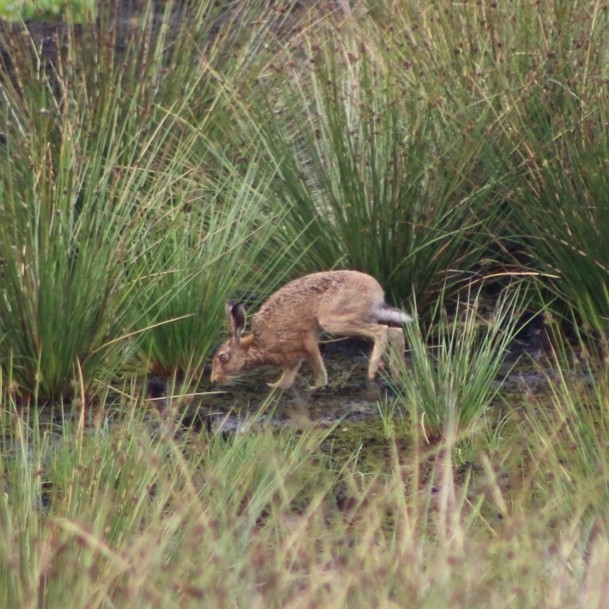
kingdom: Animalia
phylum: Chordata
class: Mammalia
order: Lagomorpha
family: Leporidae
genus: Lepus
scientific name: Lepus europaeus
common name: European hare
